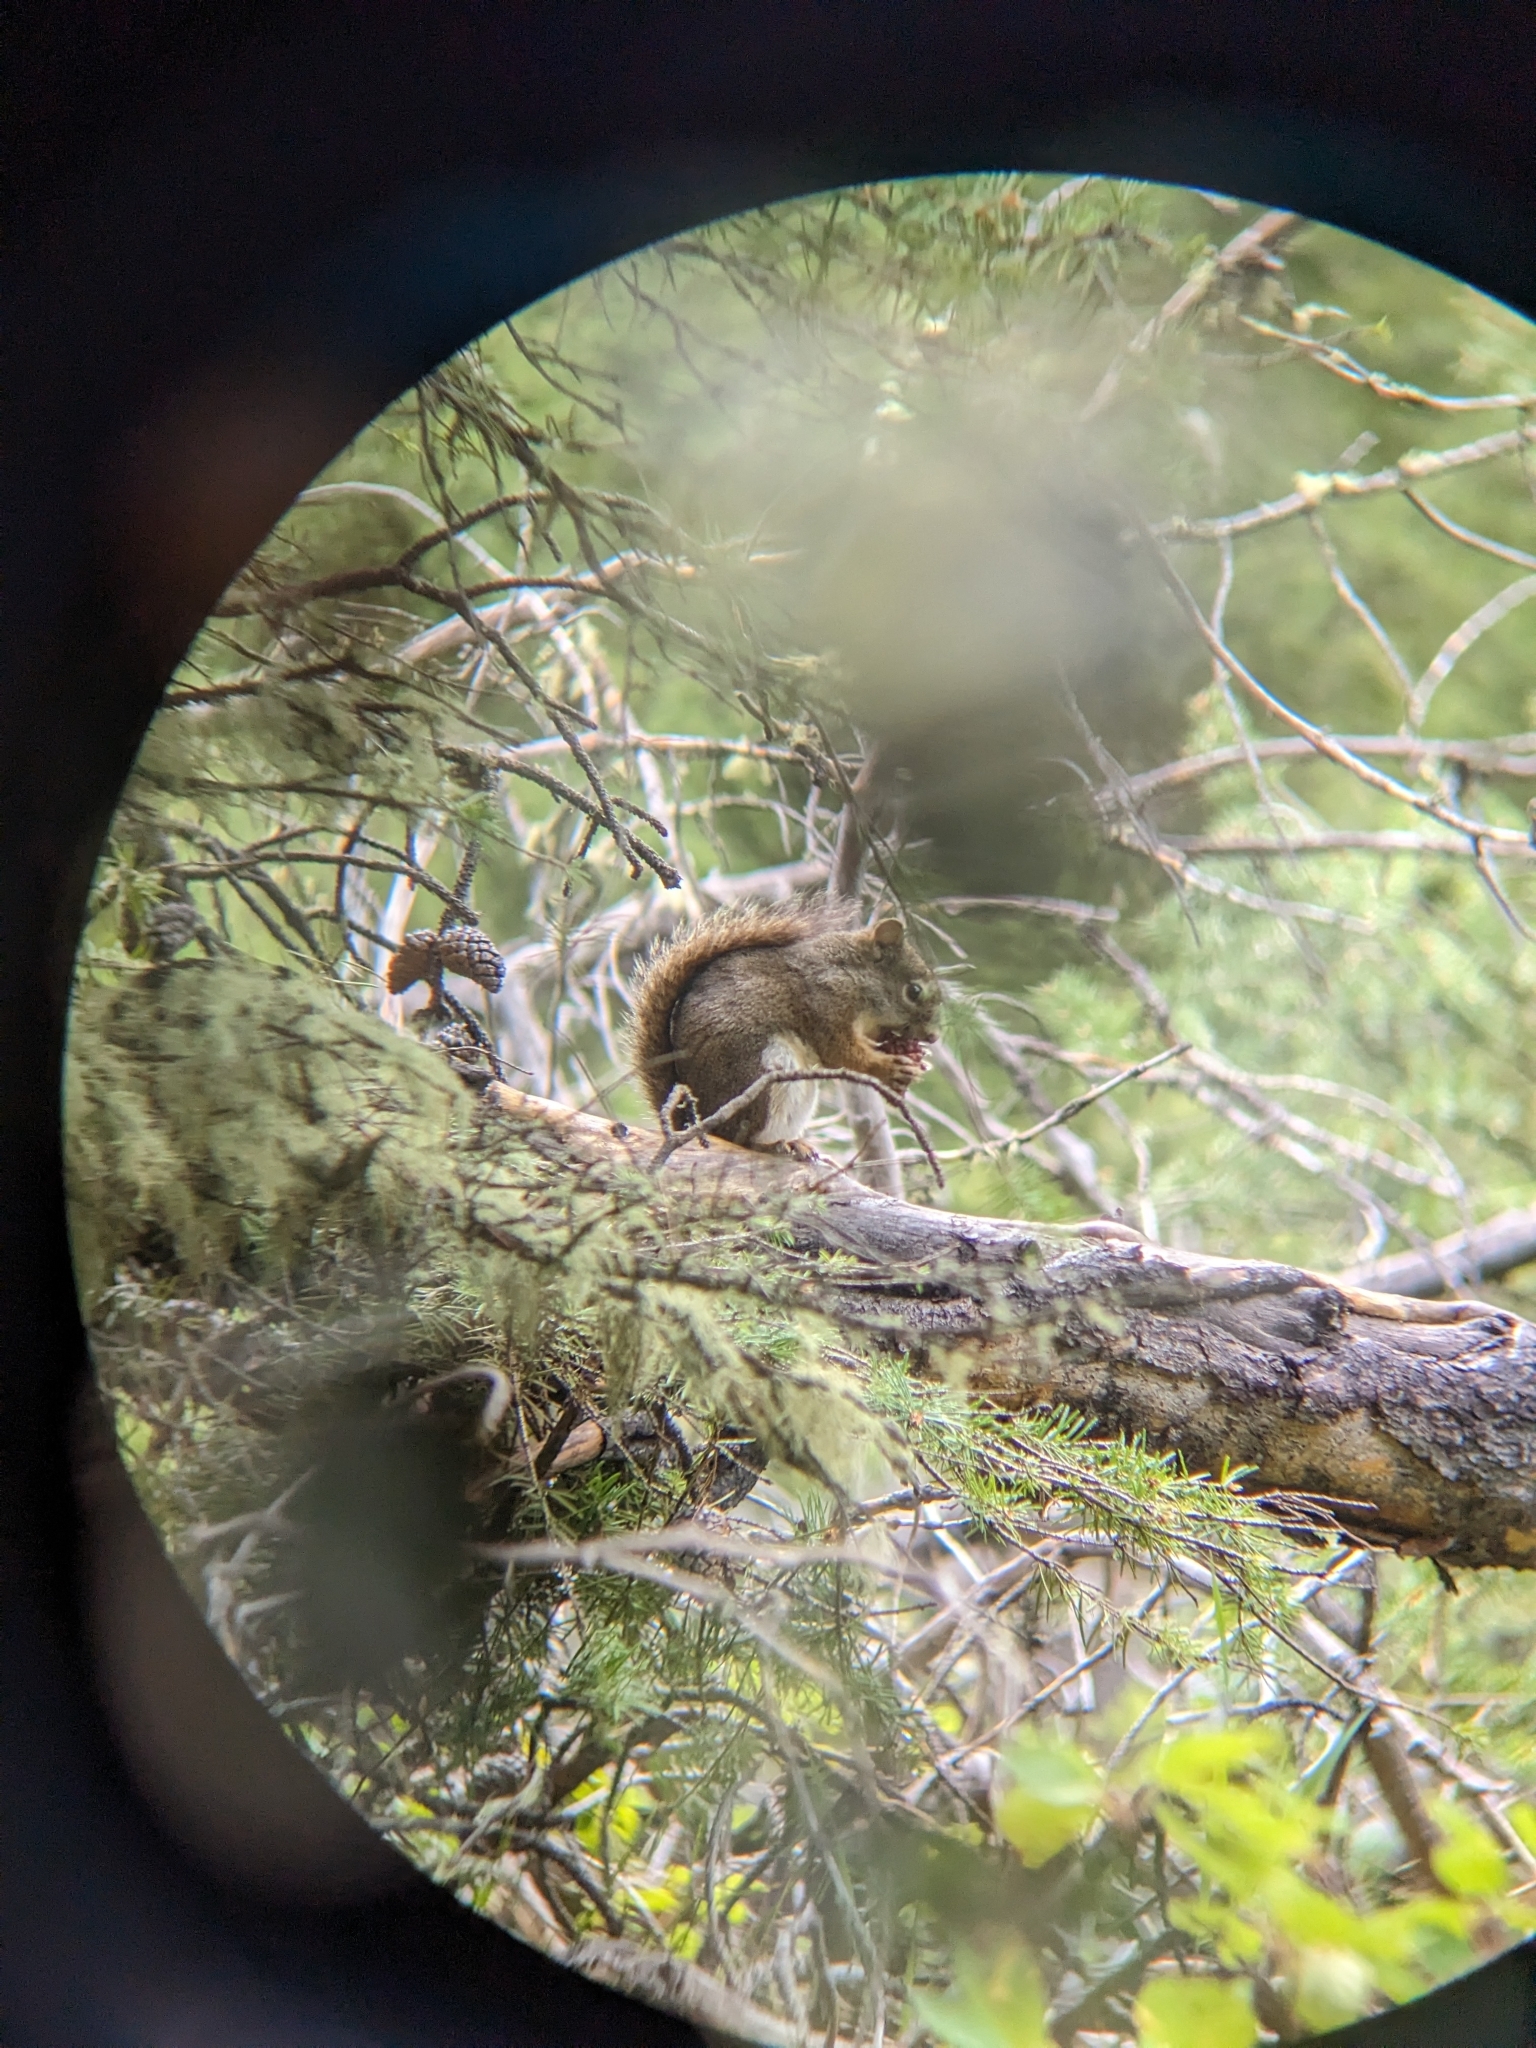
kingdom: Animalia
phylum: Chordata
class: Mammalia
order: Rodentia
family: Sciuridae
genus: Tamiasciurus
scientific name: Tamiasciurus hudsonicus
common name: Red squirrel
